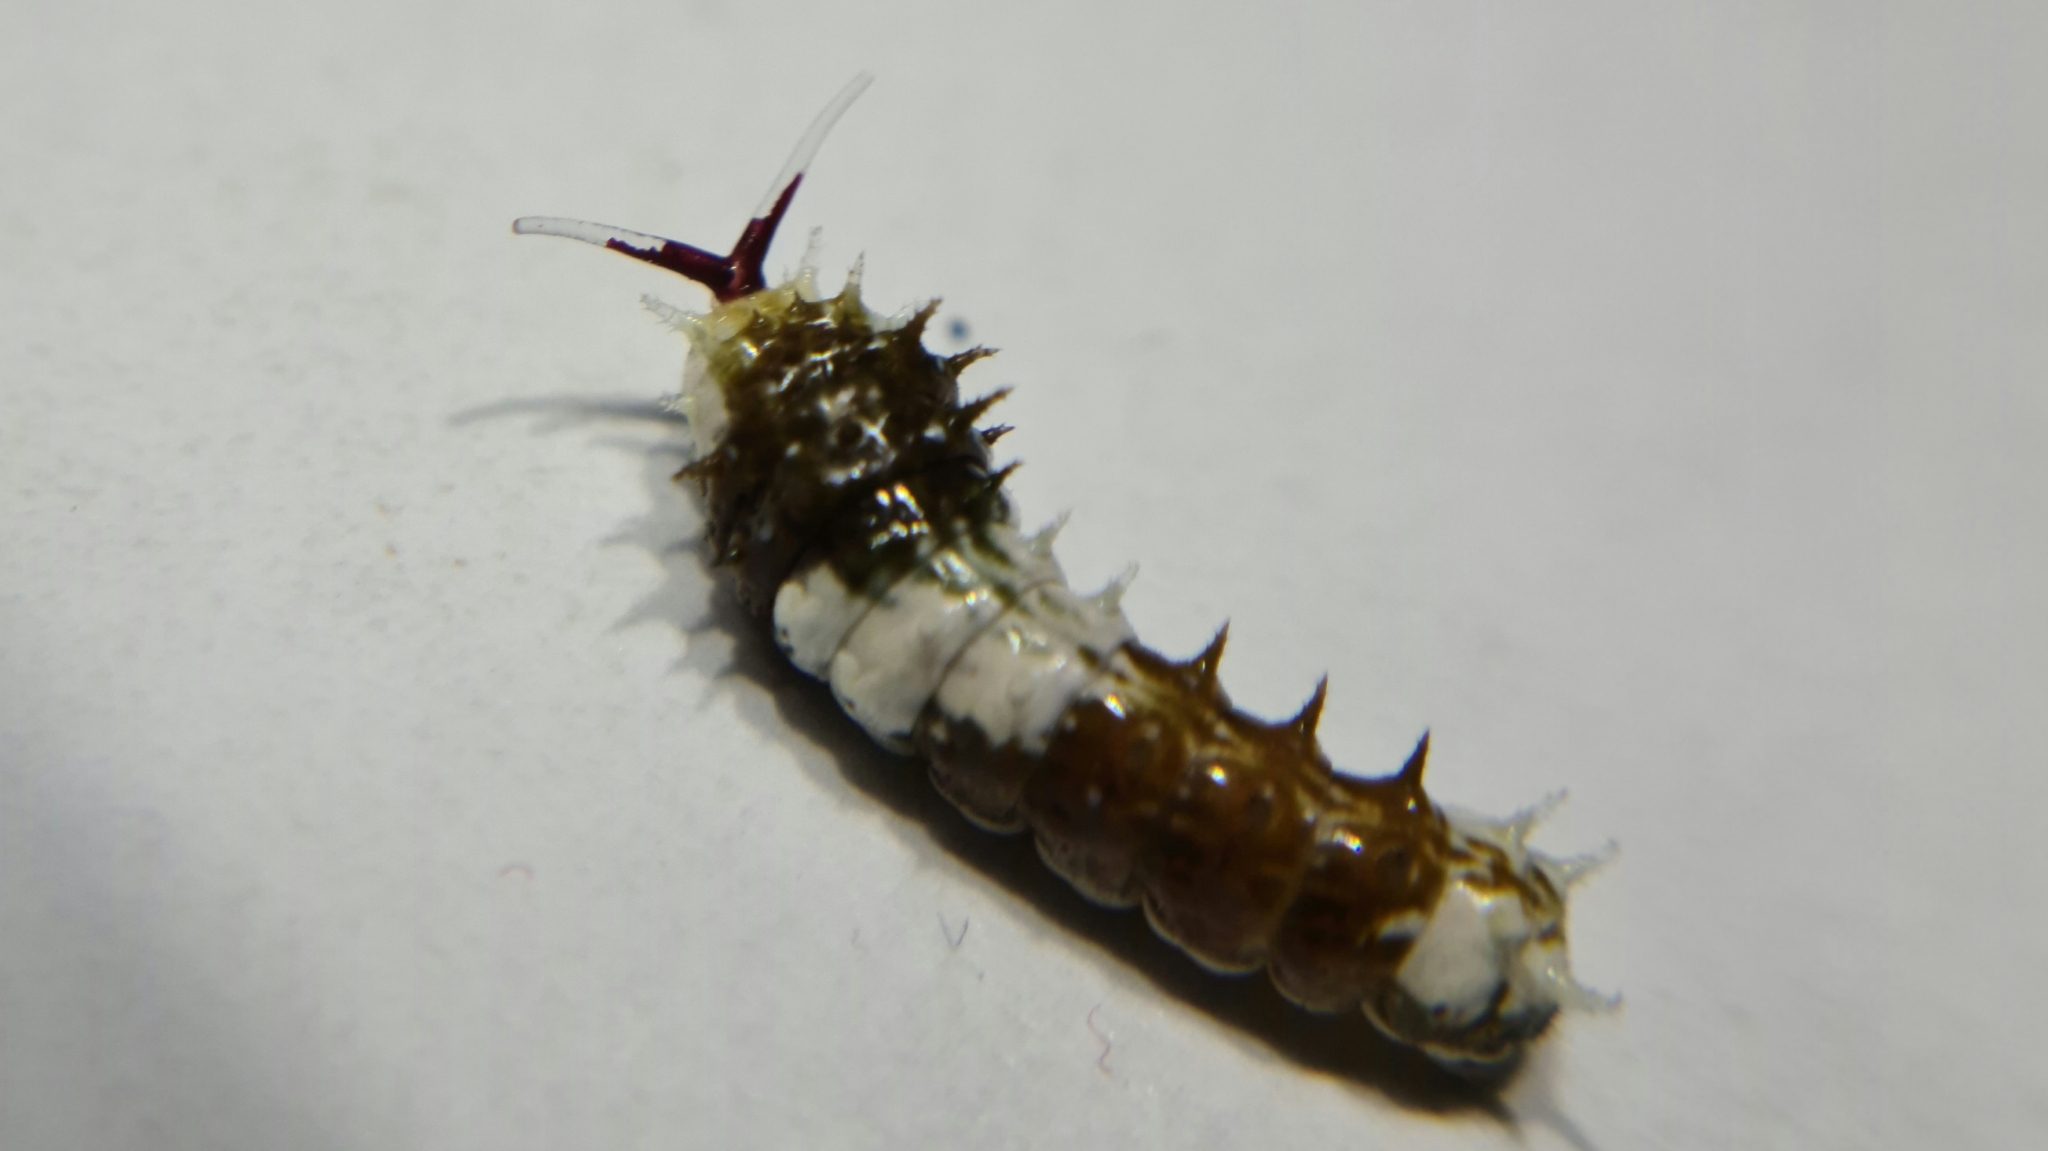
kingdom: Animalia
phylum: Arthropoda
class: Insecta
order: Lepidoptera
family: Papilionidae
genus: Papilio
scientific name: Papilio aegeus
